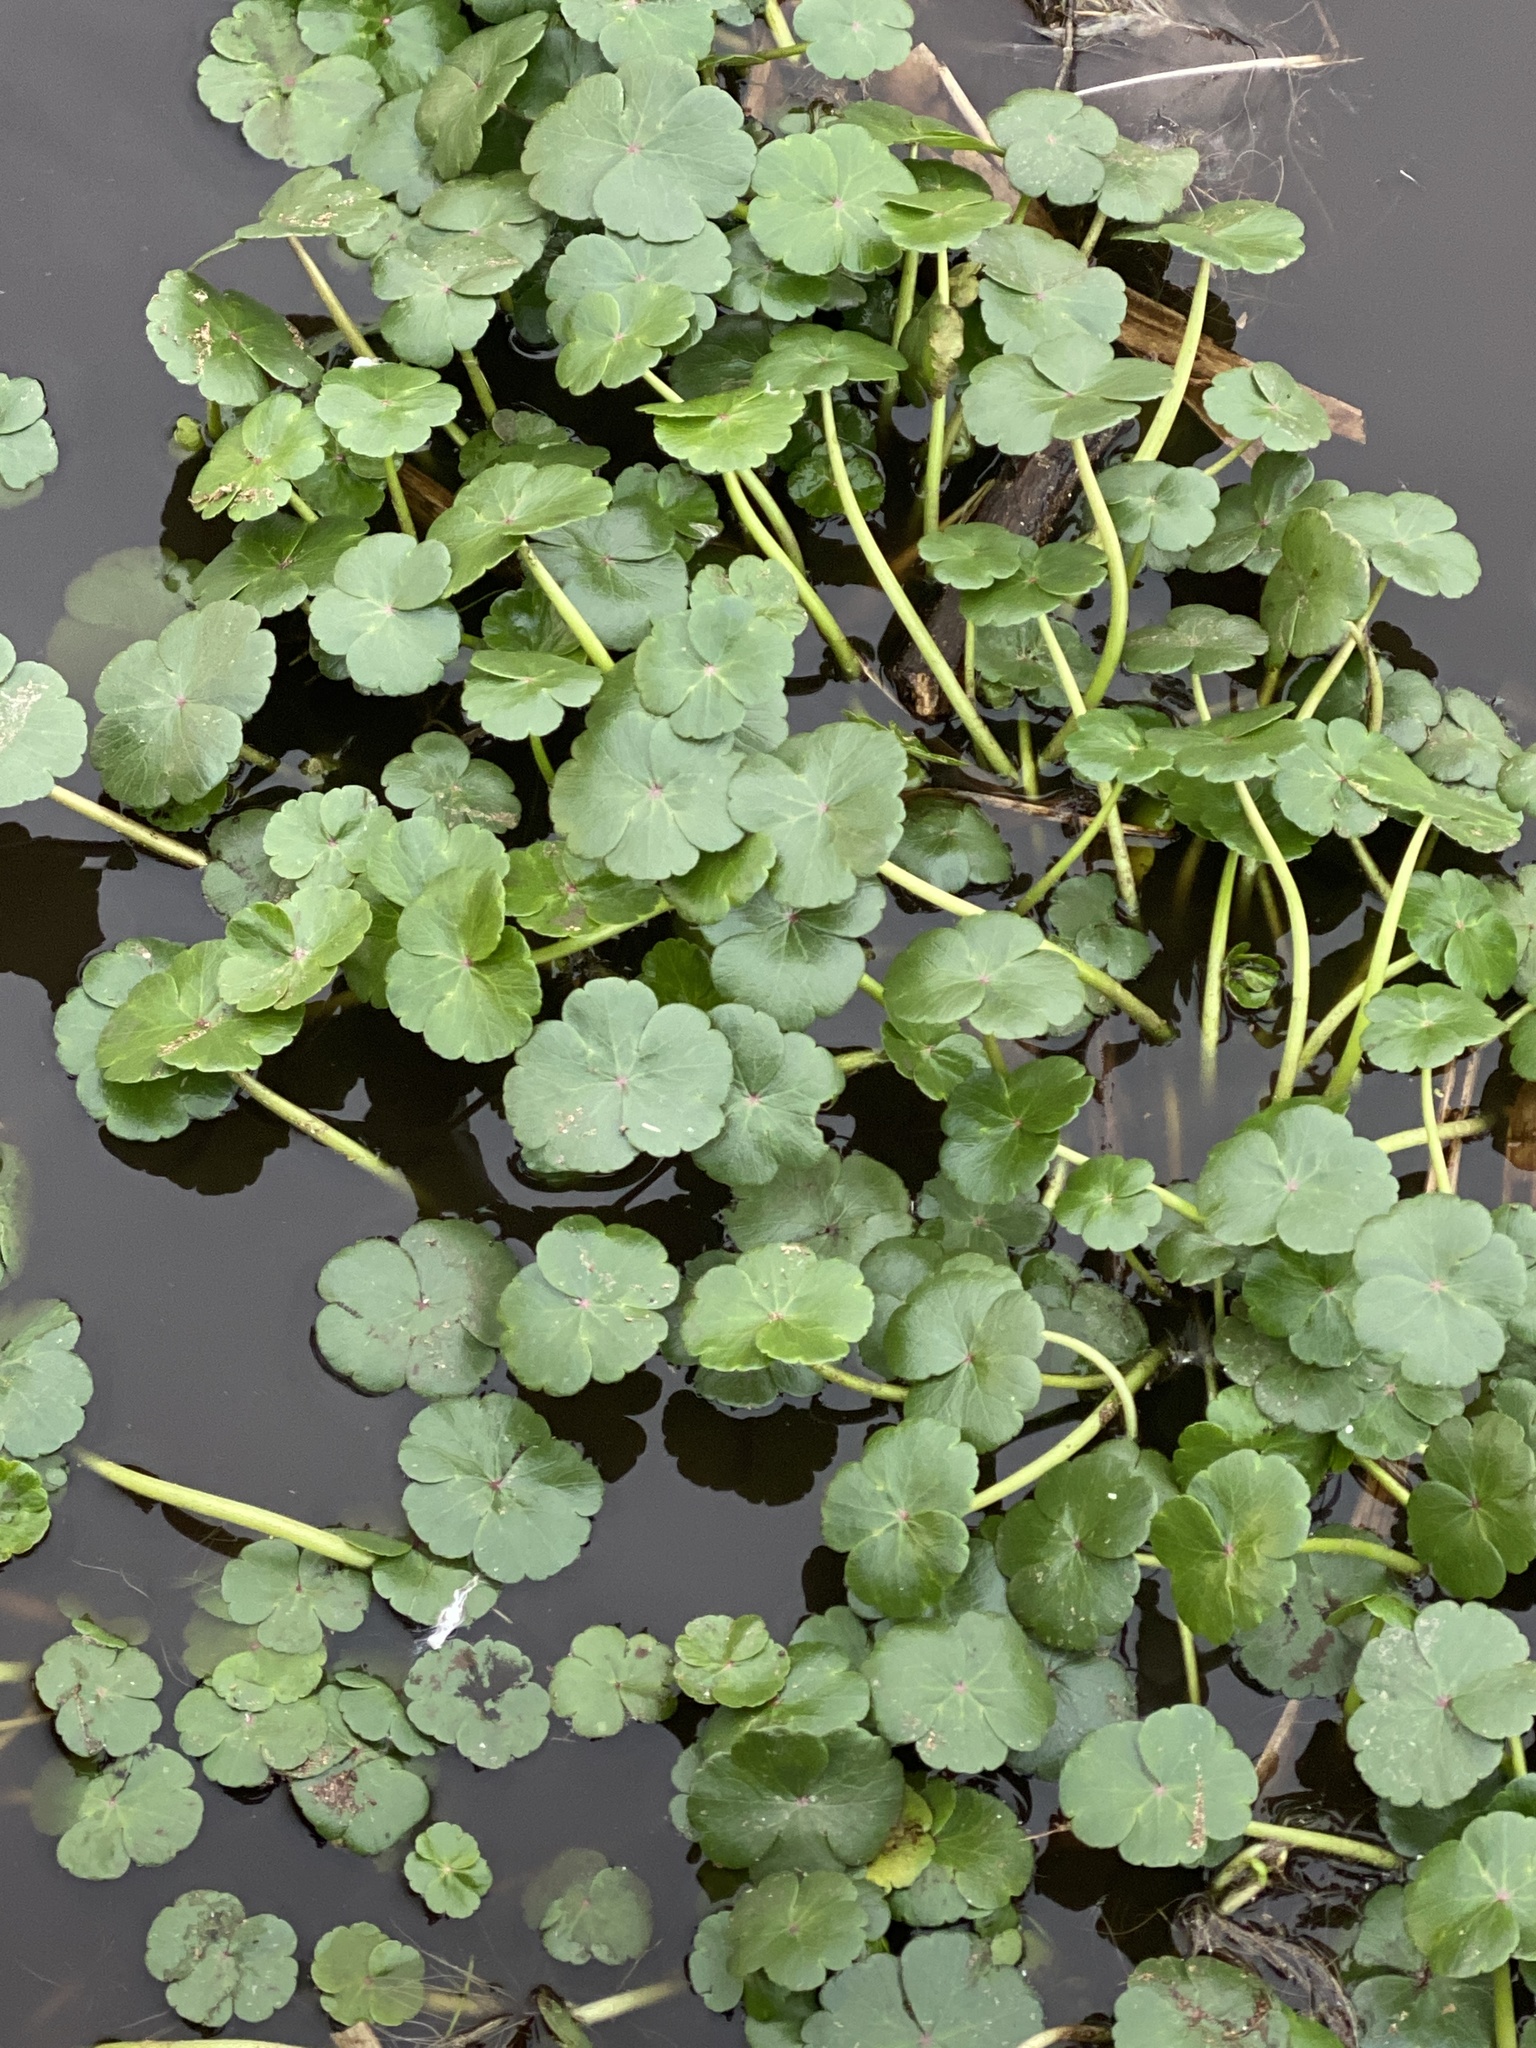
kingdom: Plantae
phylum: Tracheophyta
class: Magnoliopsida
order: Apiales
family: Araliaceae
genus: Hydrocotyle
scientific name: Hydrocotyle ranunculoides
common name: Floating pennywort
